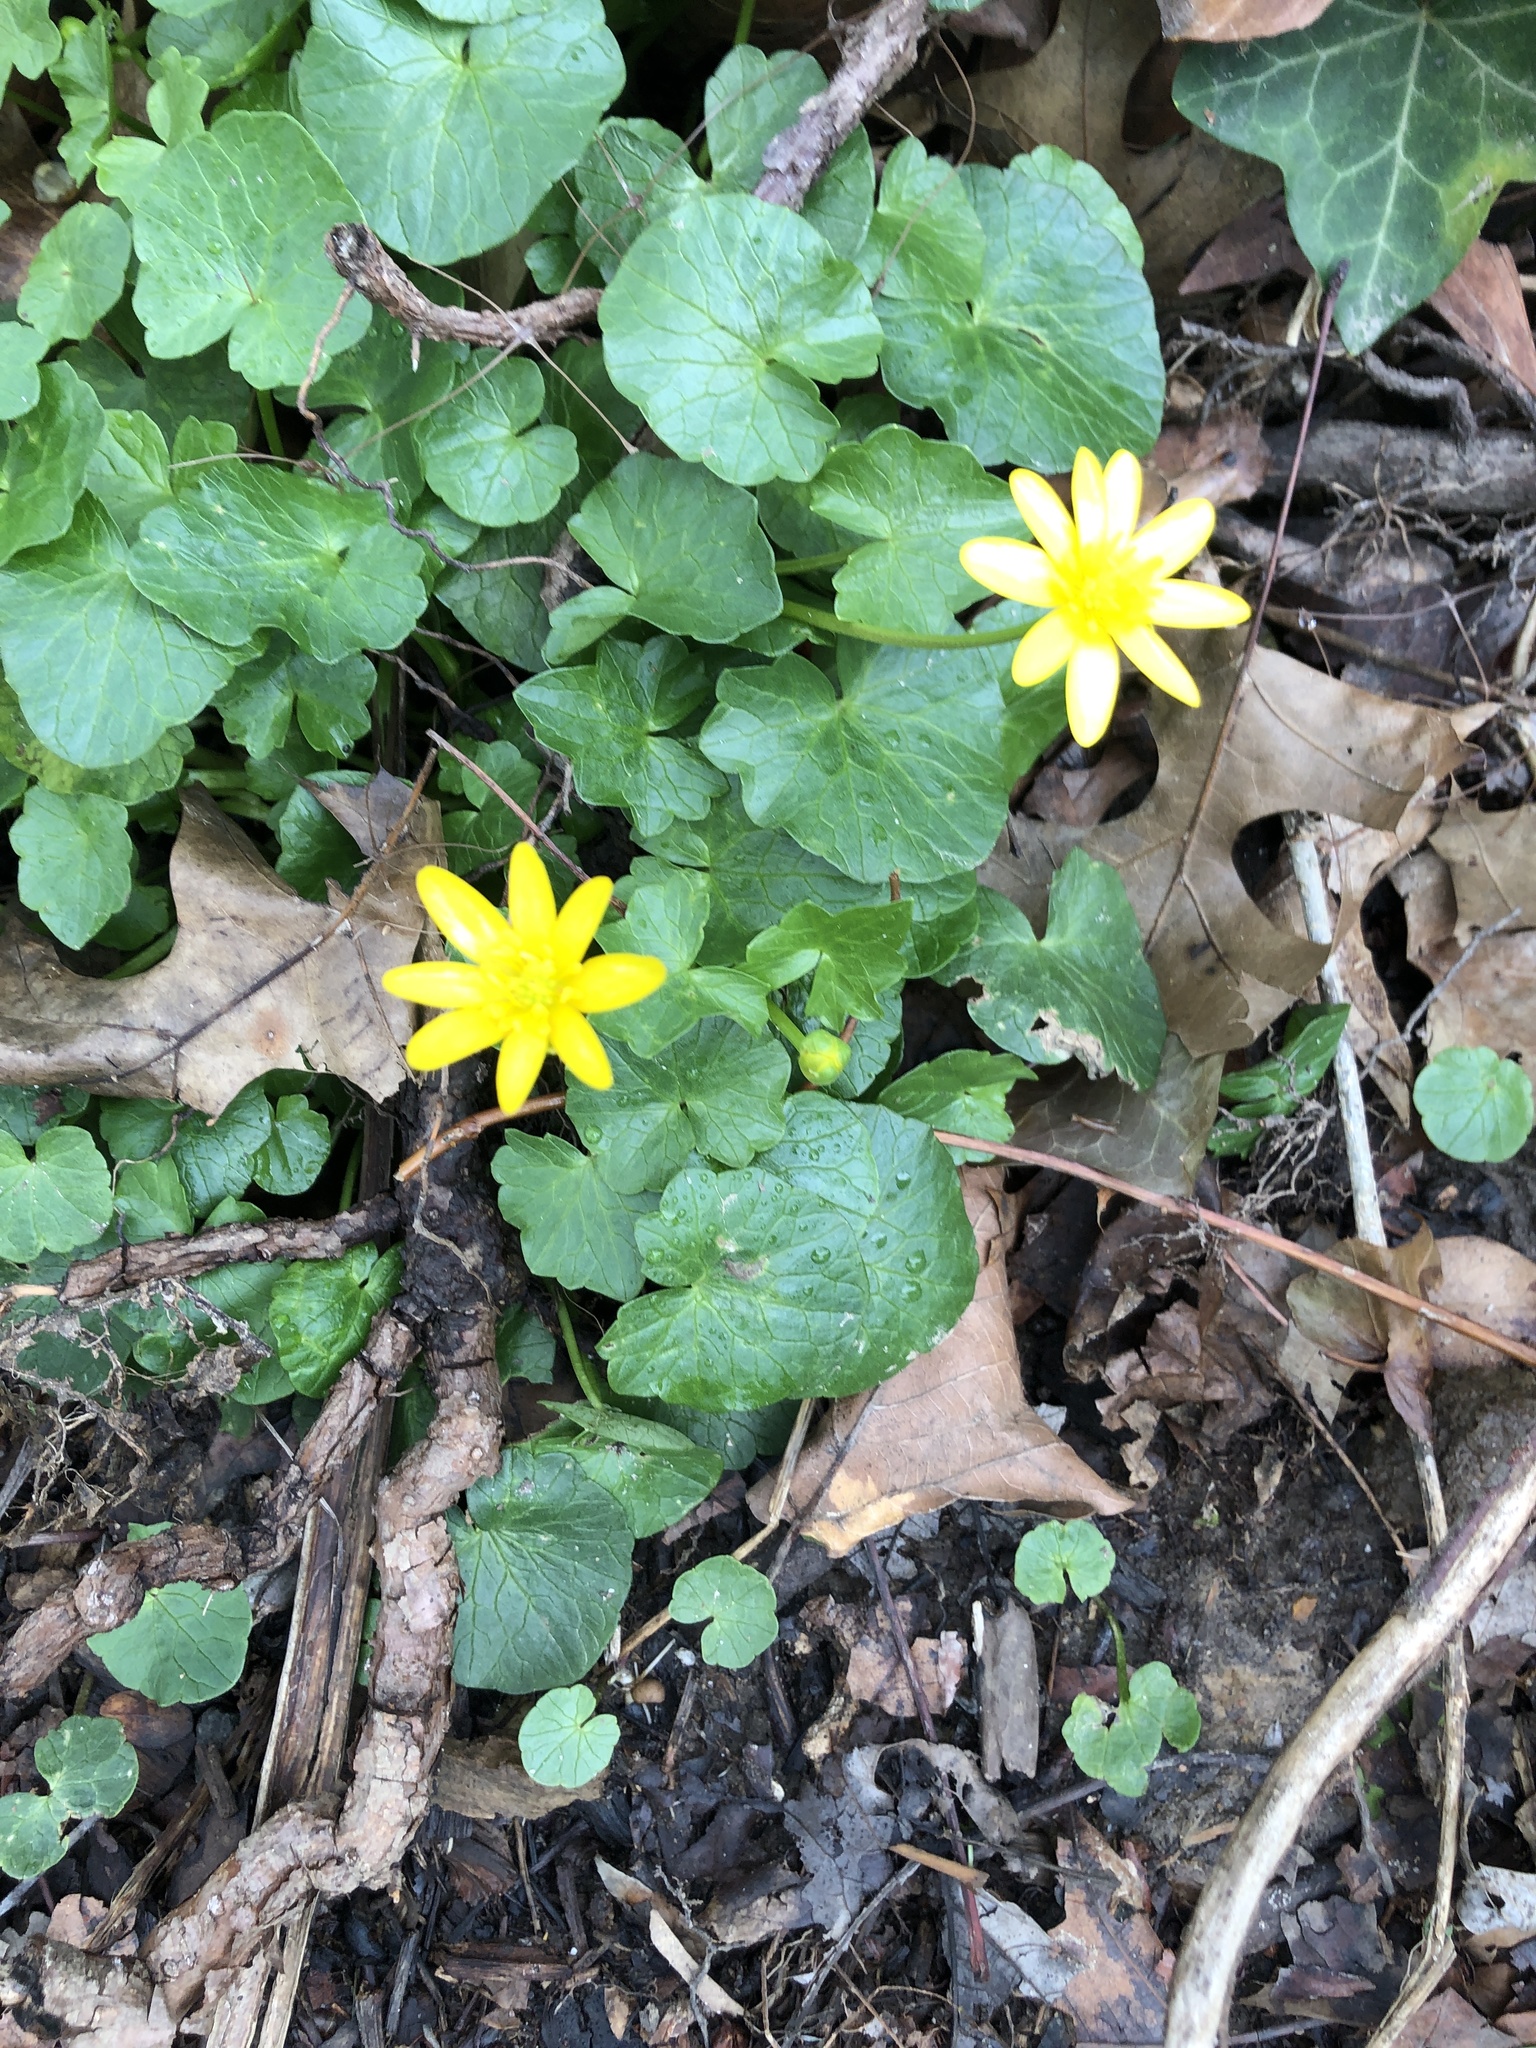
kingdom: Plantae
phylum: Tracheophyta
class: Magnoliopsida
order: Ranunculales
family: Ranunculaceae
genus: Ficaria
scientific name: Ficaria verna
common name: Lesser celandine
